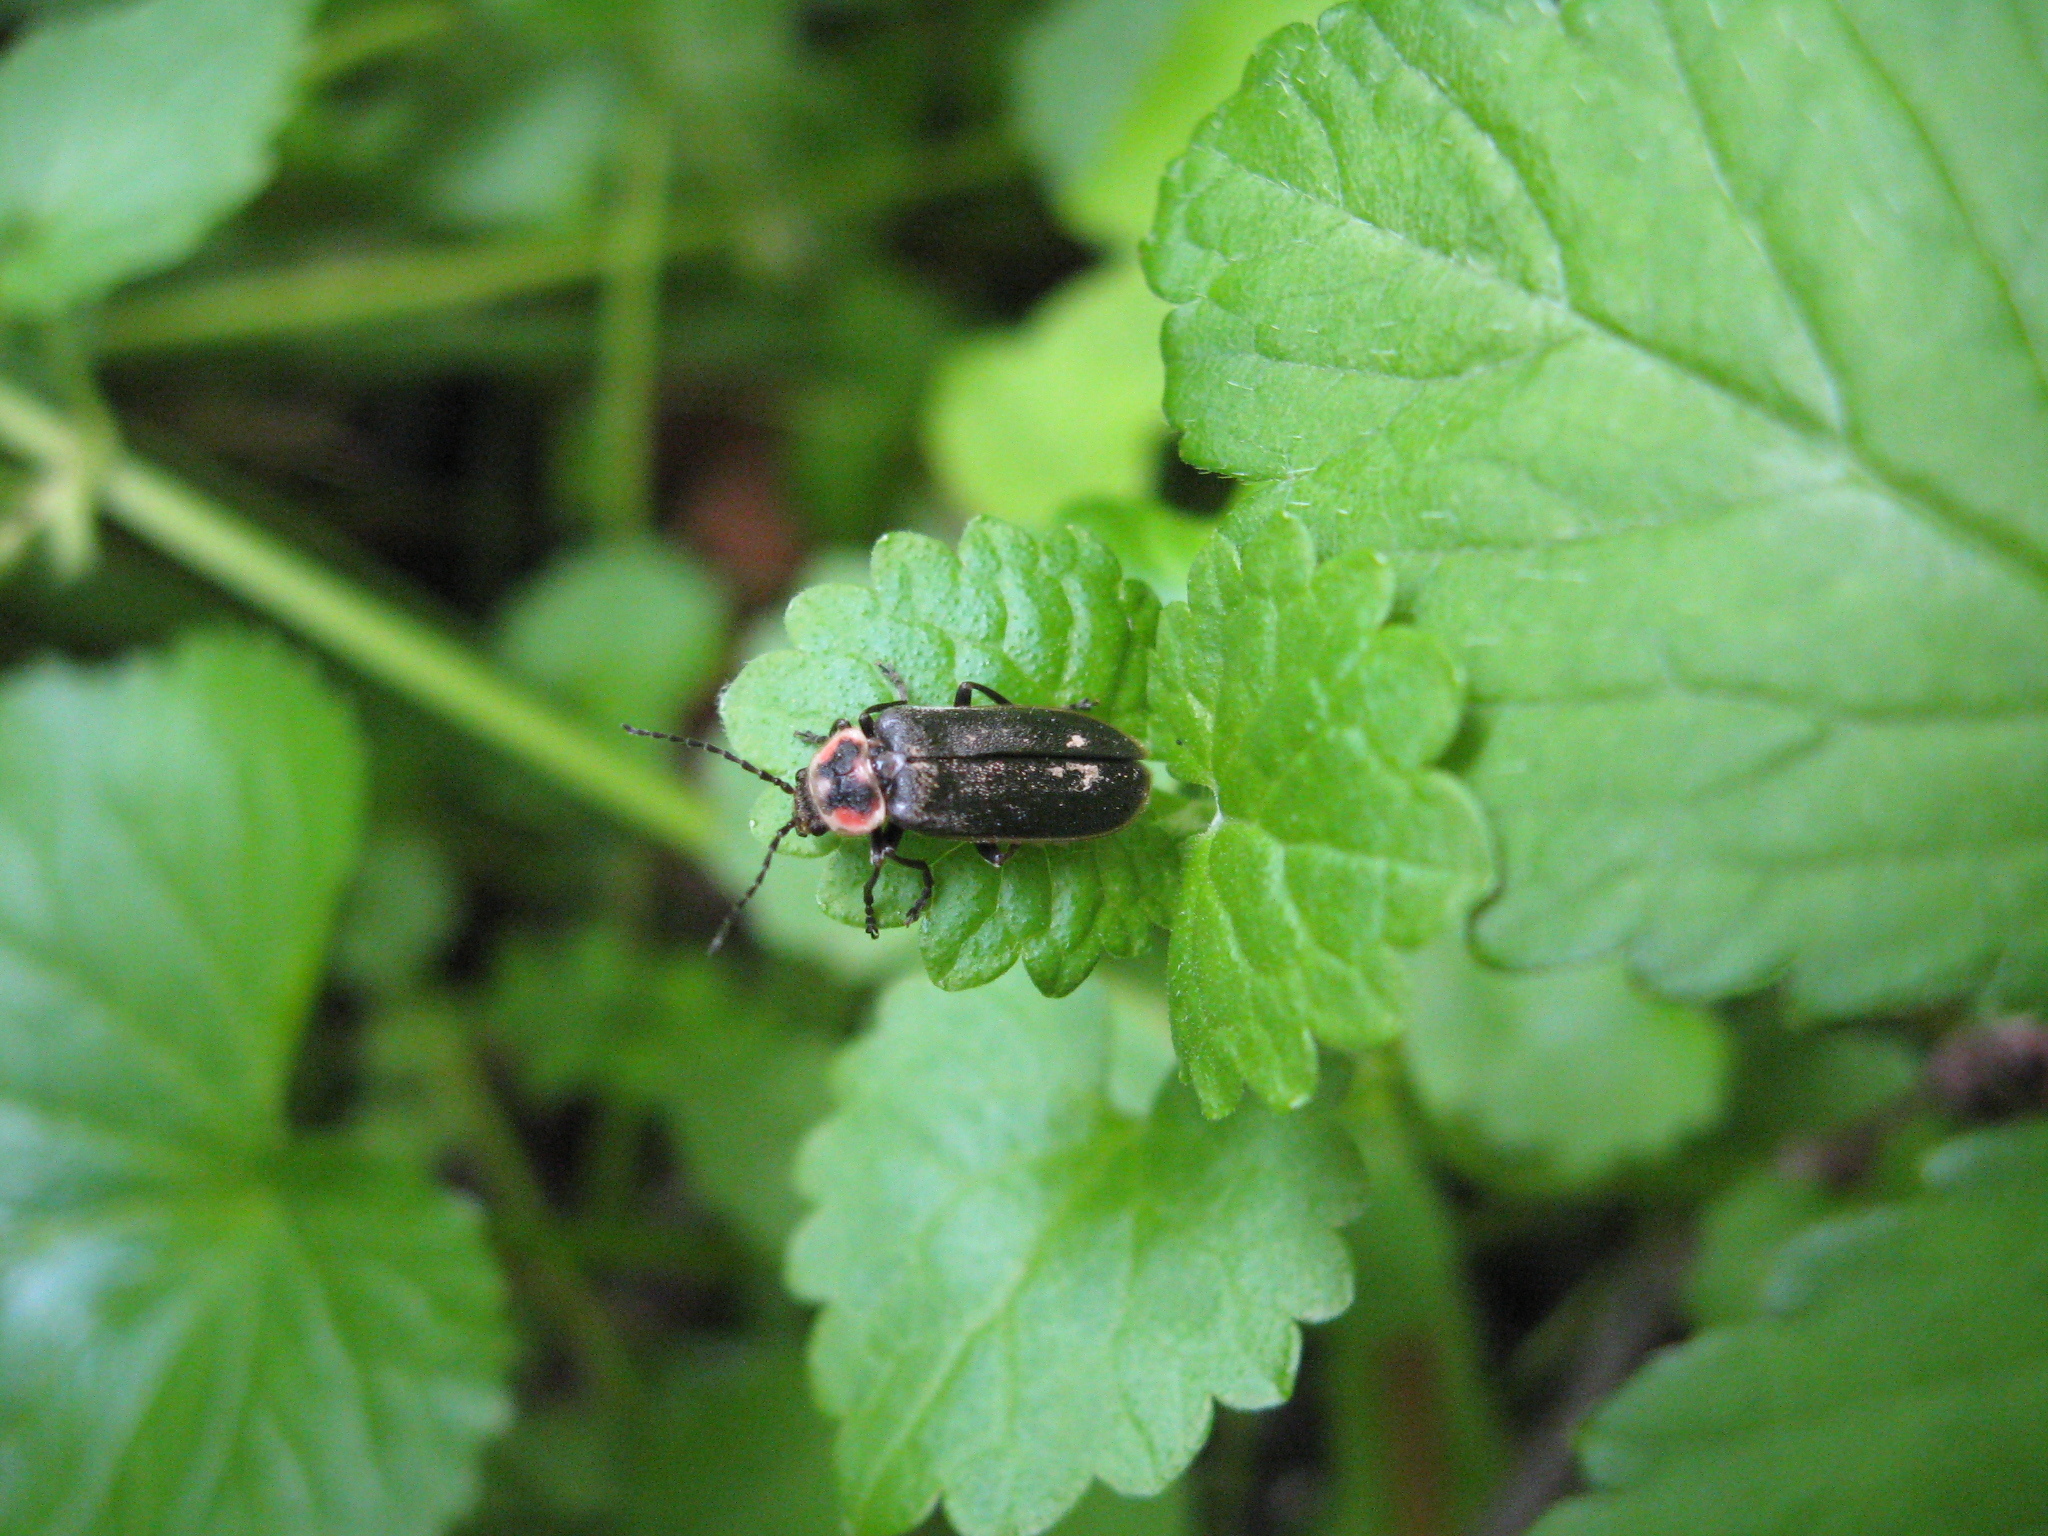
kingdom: Animalia
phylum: Arthropoda
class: Insecta
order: Coleoptera
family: Cantharidae
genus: Atalantycha
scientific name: Atalantycha dentigera
